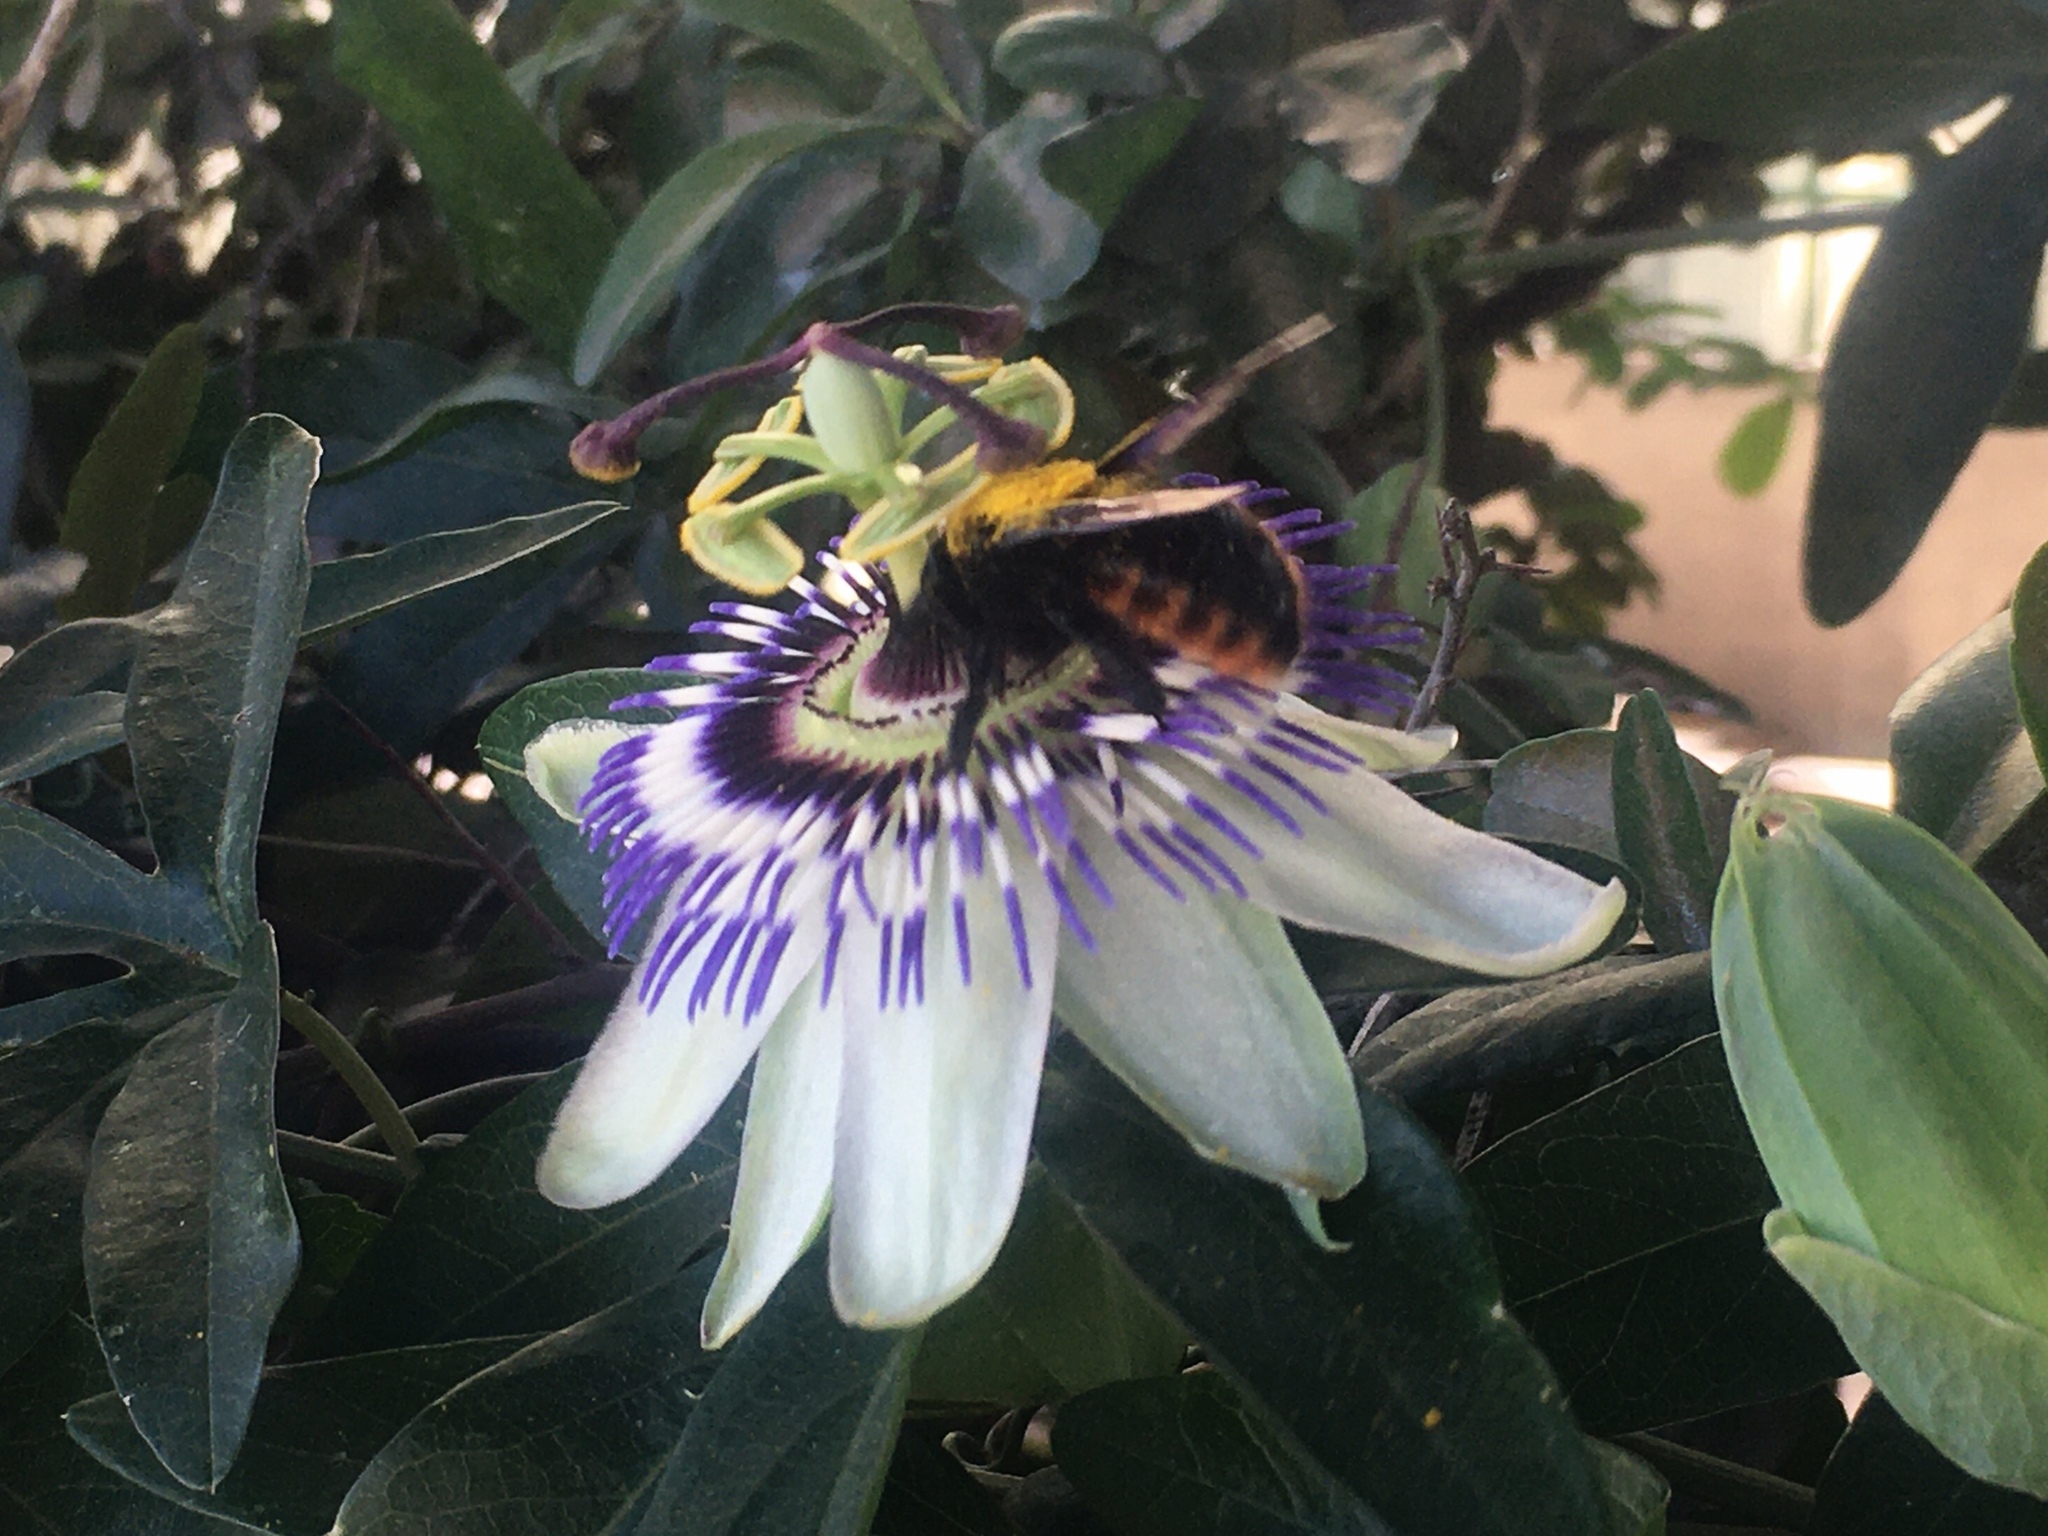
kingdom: Animalia
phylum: Arthropoda
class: Insecta
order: Hymenoptera
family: Apidae
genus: Xylocopa
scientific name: Xylocopa augusti
